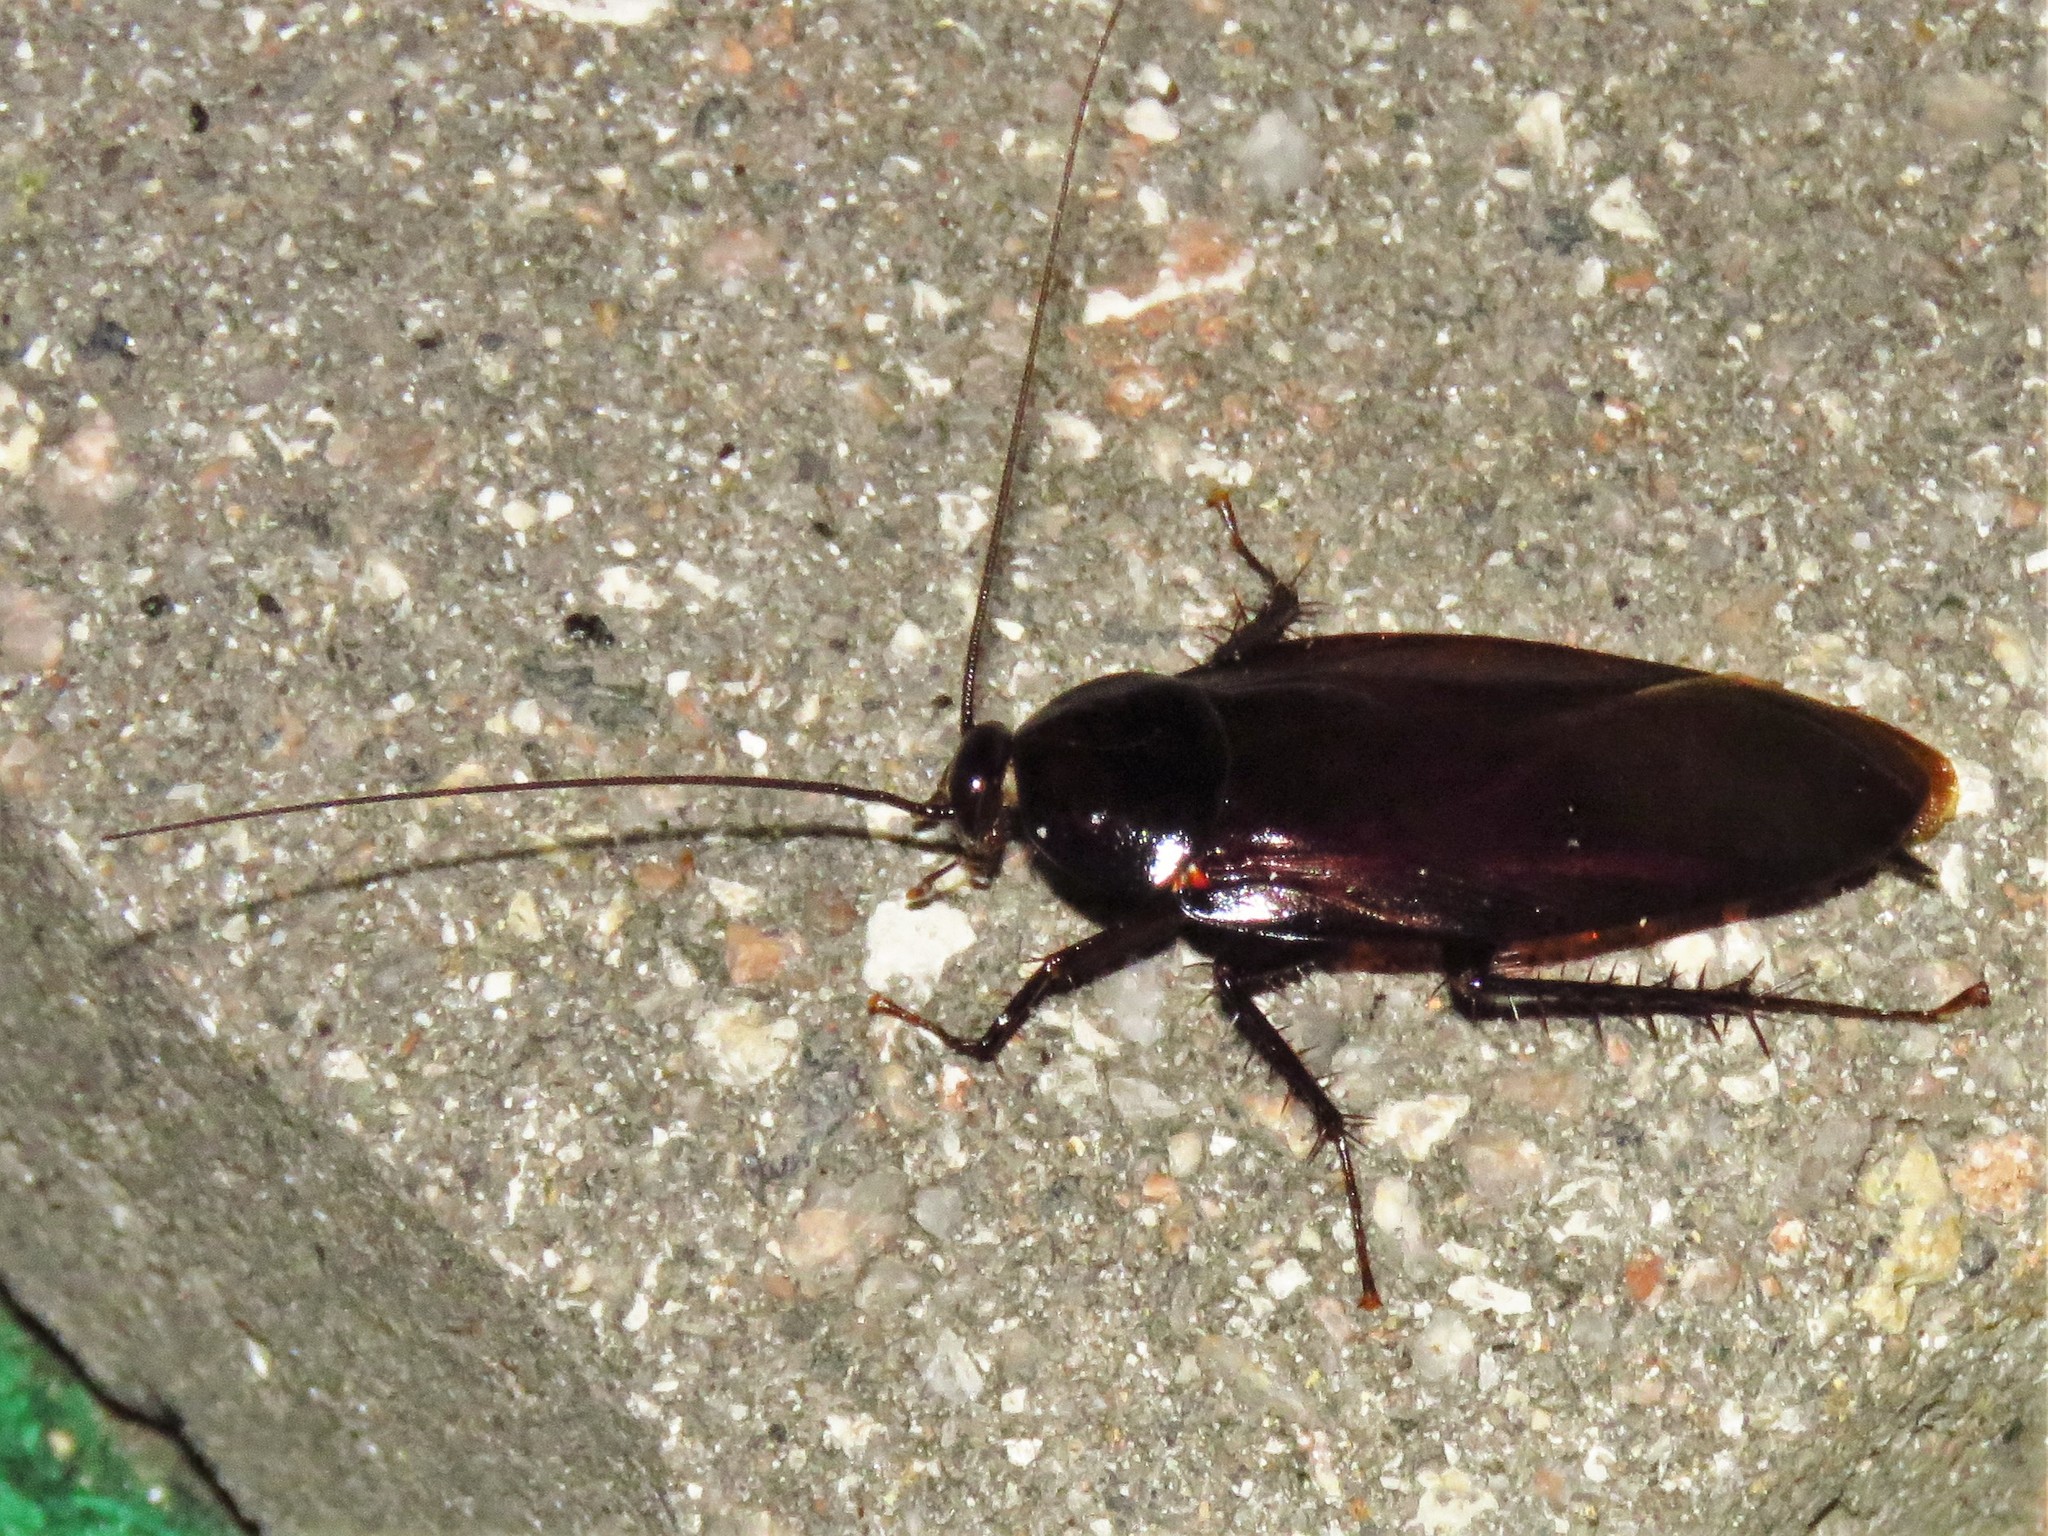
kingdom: Animalia
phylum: Arthropoda
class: Insecta
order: Blattodea
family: Blattidae
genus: Periplaneta
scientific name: Periplaneta fuliginosa
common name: Smokeybrown cockroad
